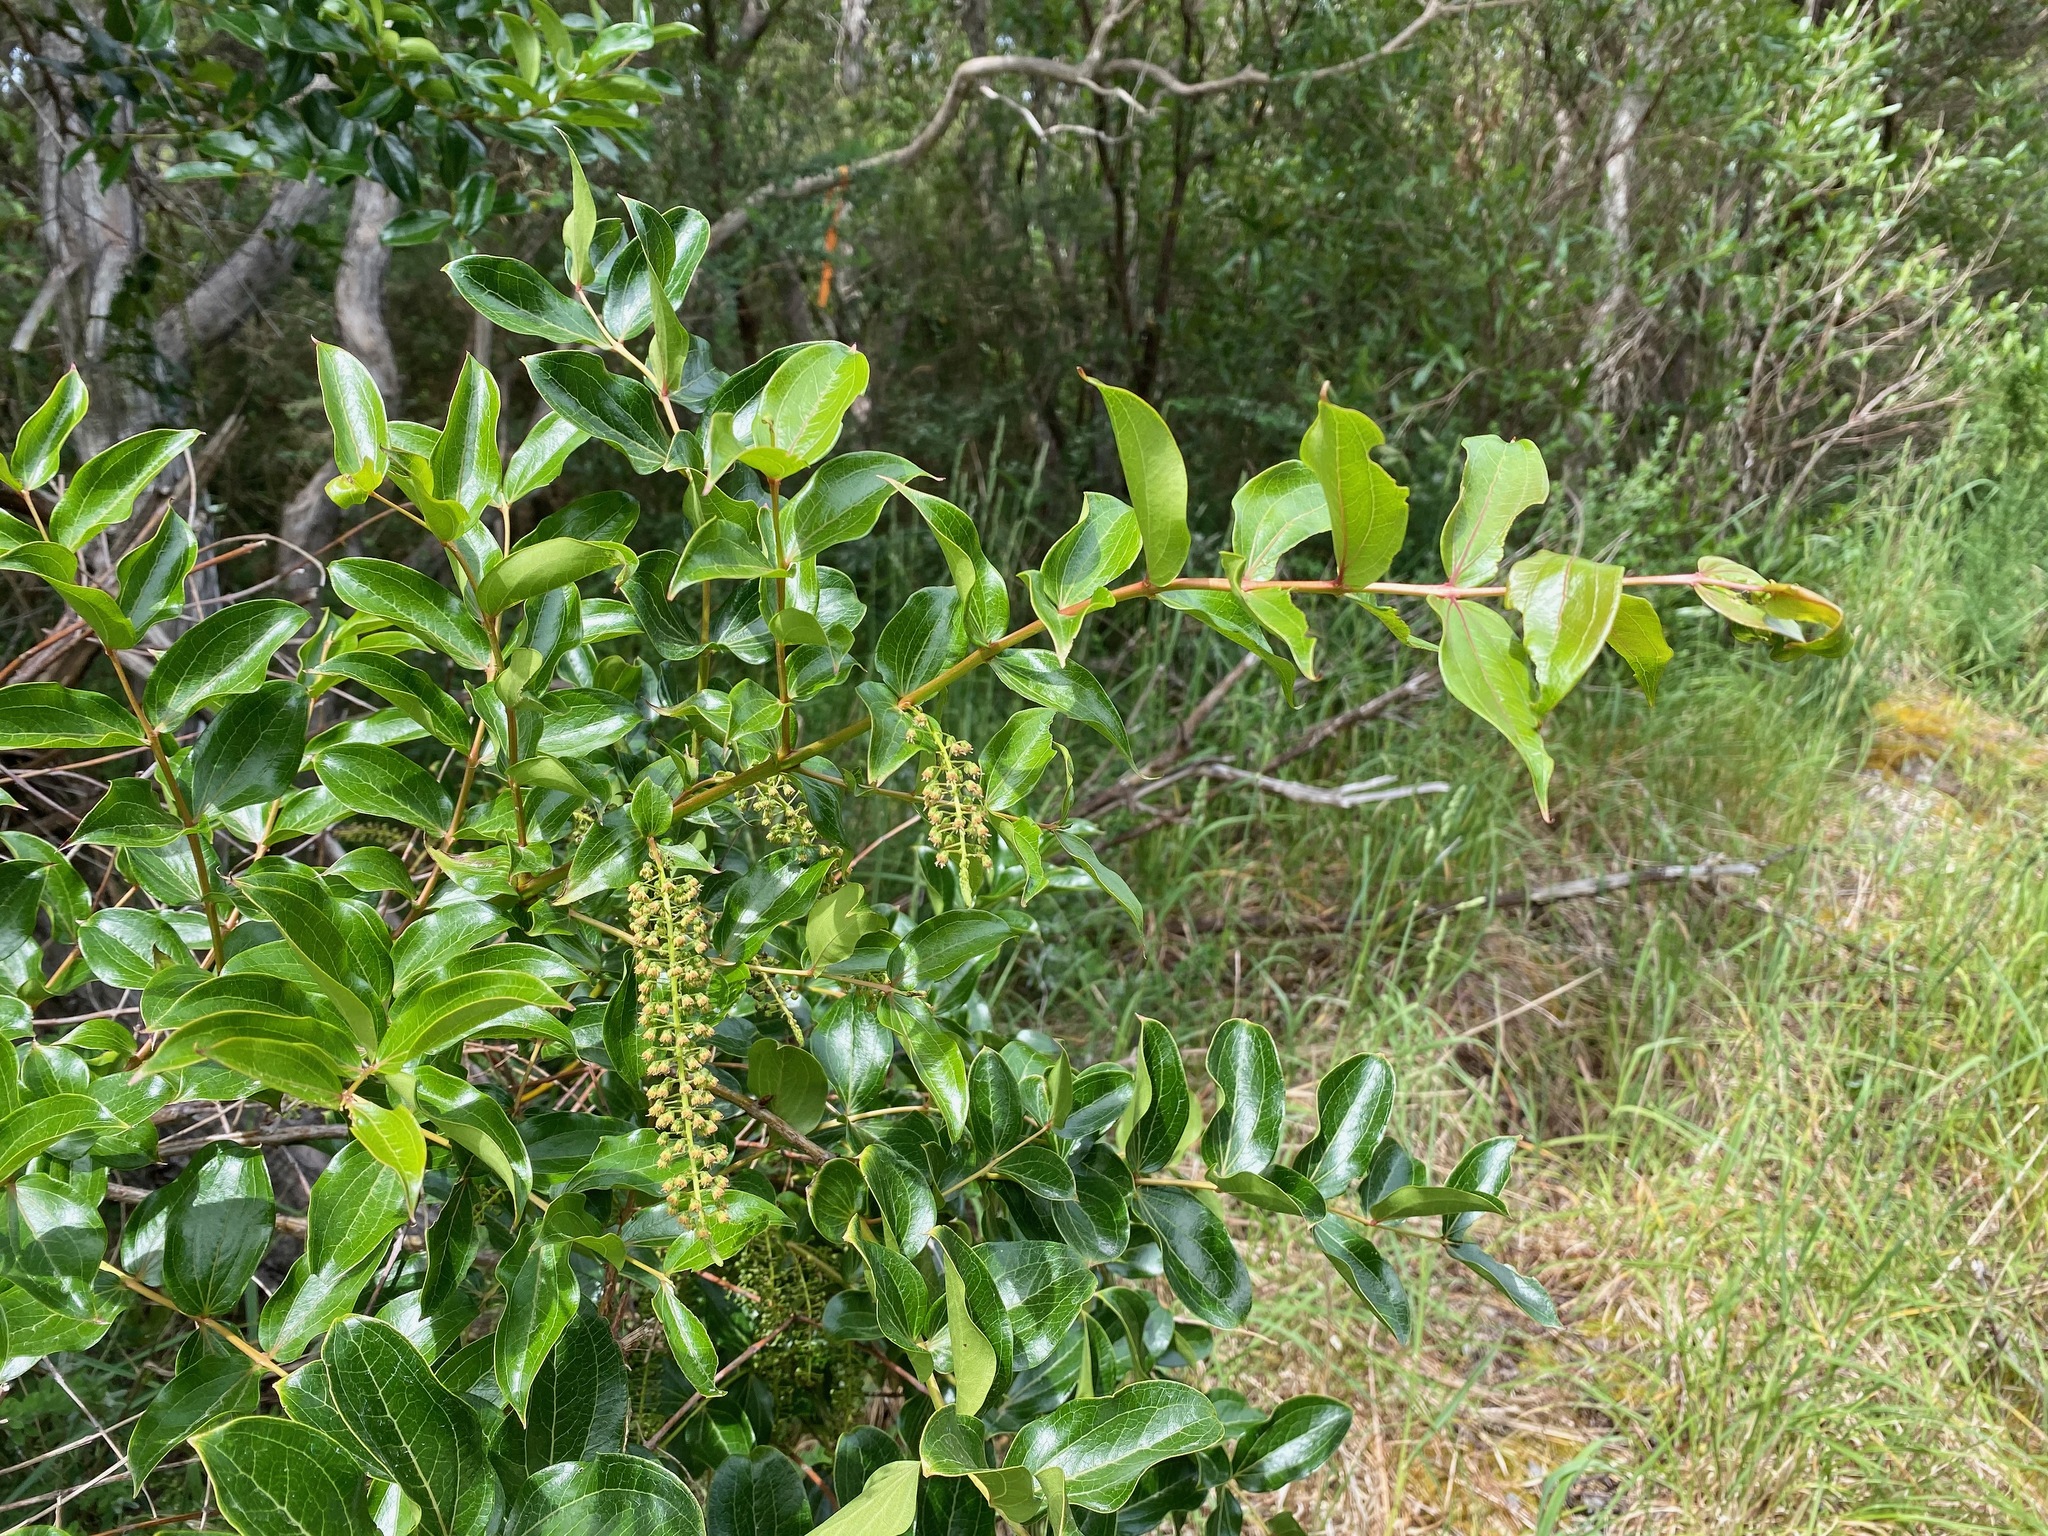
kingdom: Plantae
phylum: Tracheophyta
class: Magnoliopsida
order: Cucurbitales
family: Coriariaceae
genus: Coriaria
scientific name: Coriaria arborea
